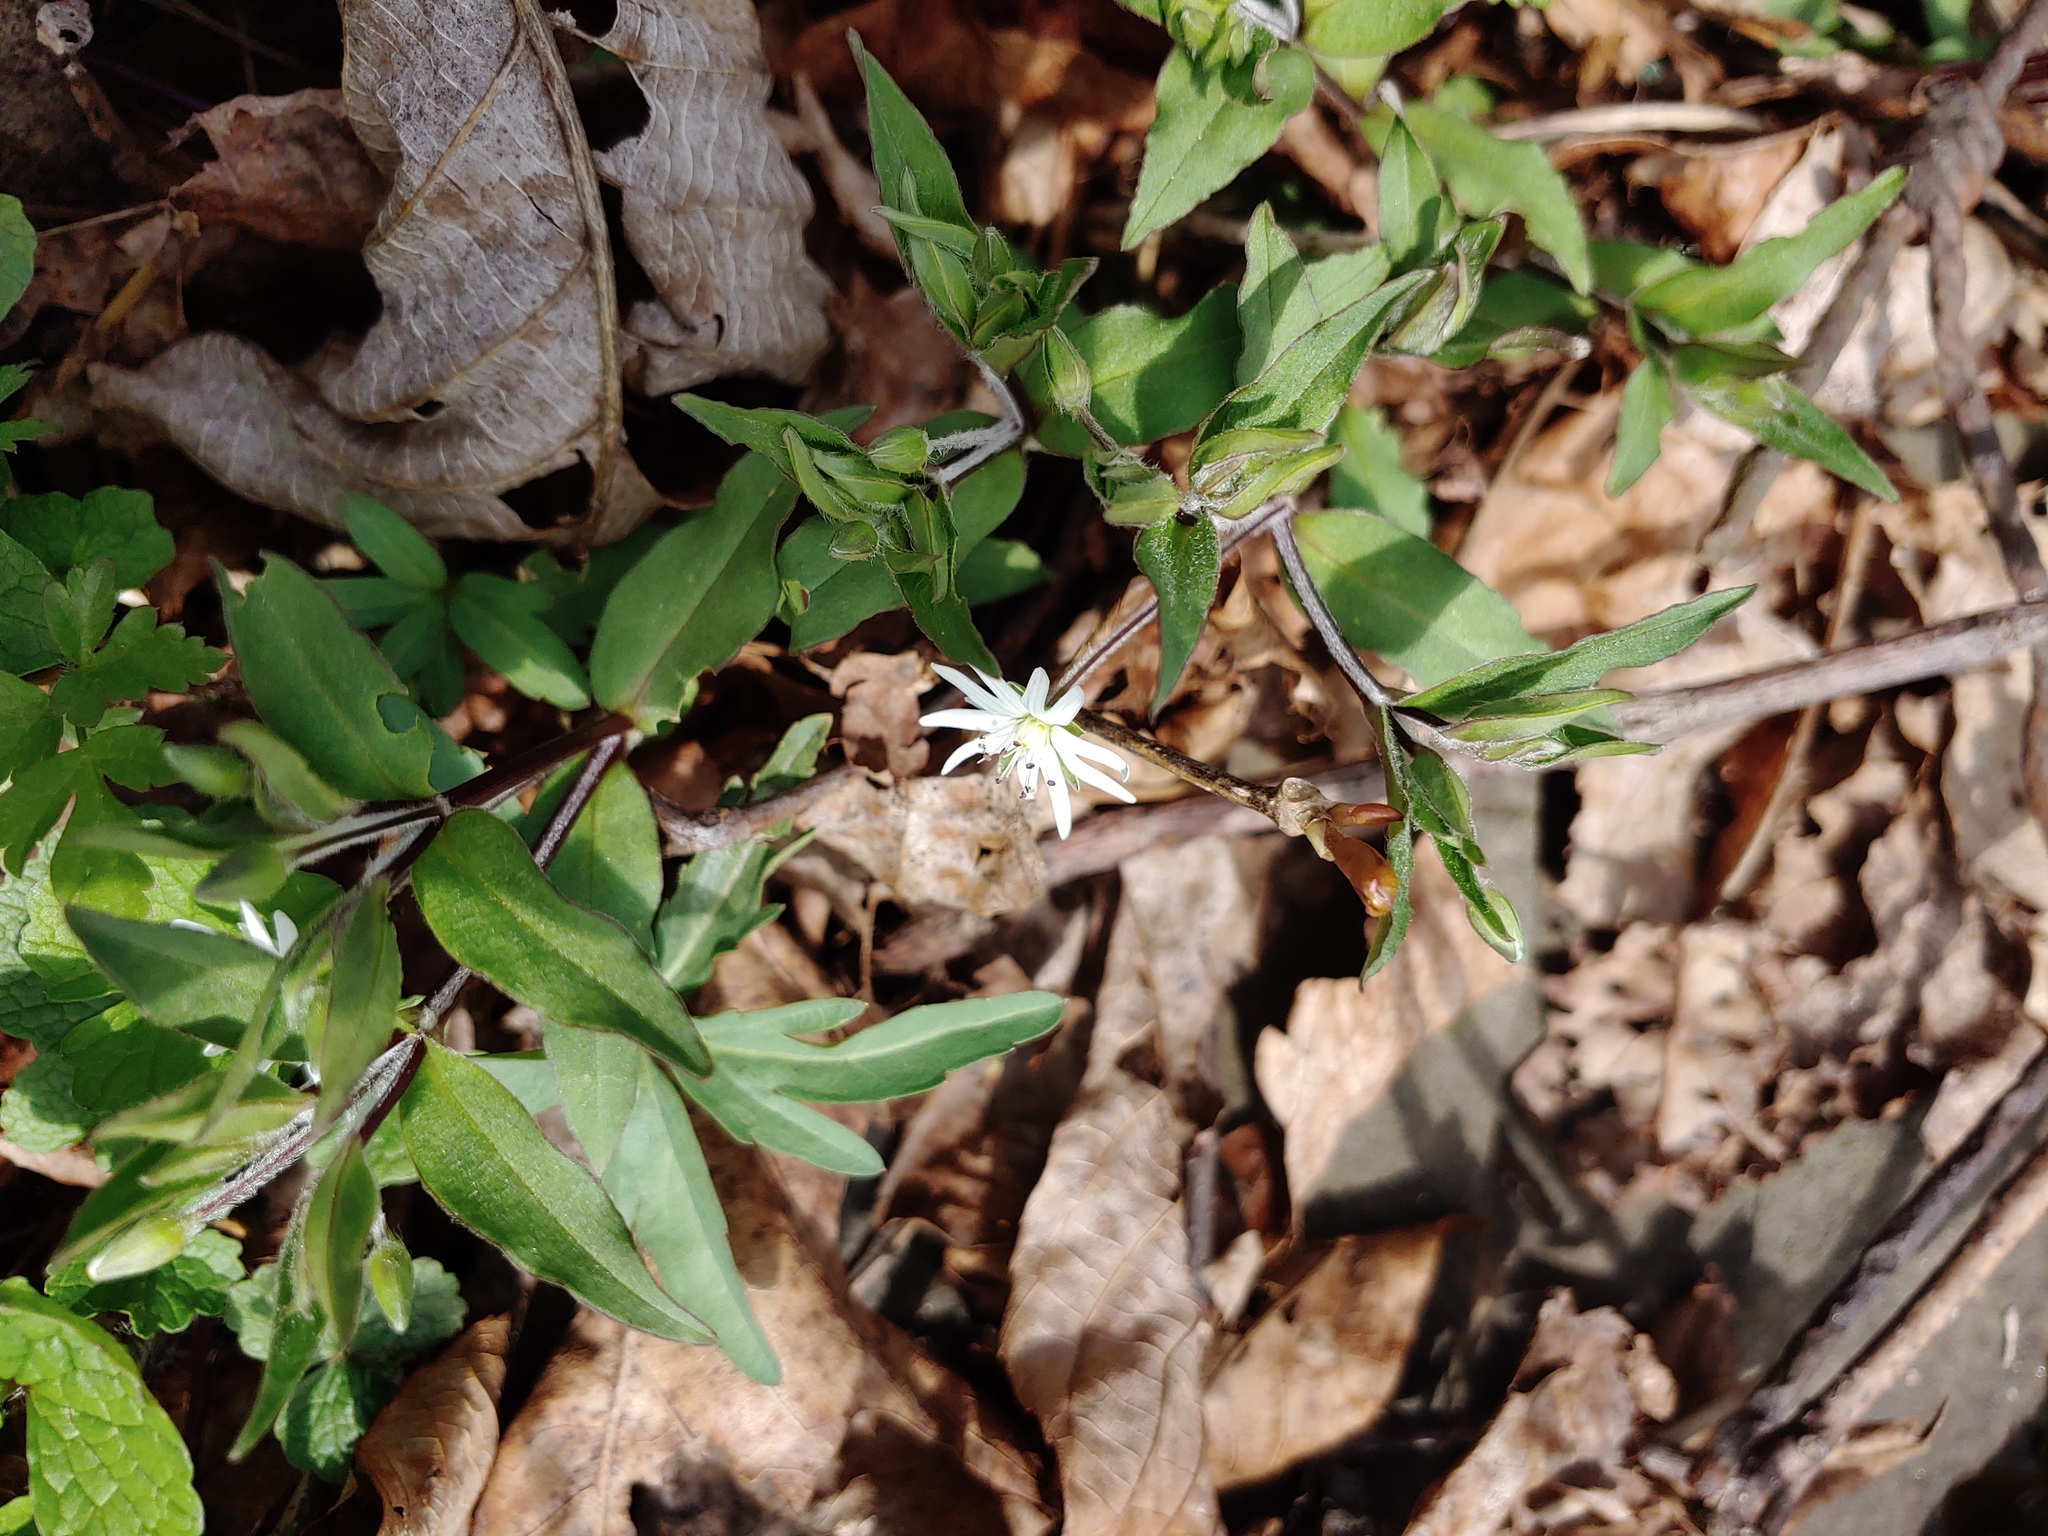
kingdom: Plantae
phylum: Tracheophyta
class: Magnoliopsida
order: Caryophyllales
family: Caryophyllaceae
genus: Stellaria
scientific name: Stellaria pubera
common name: Star chickweed
